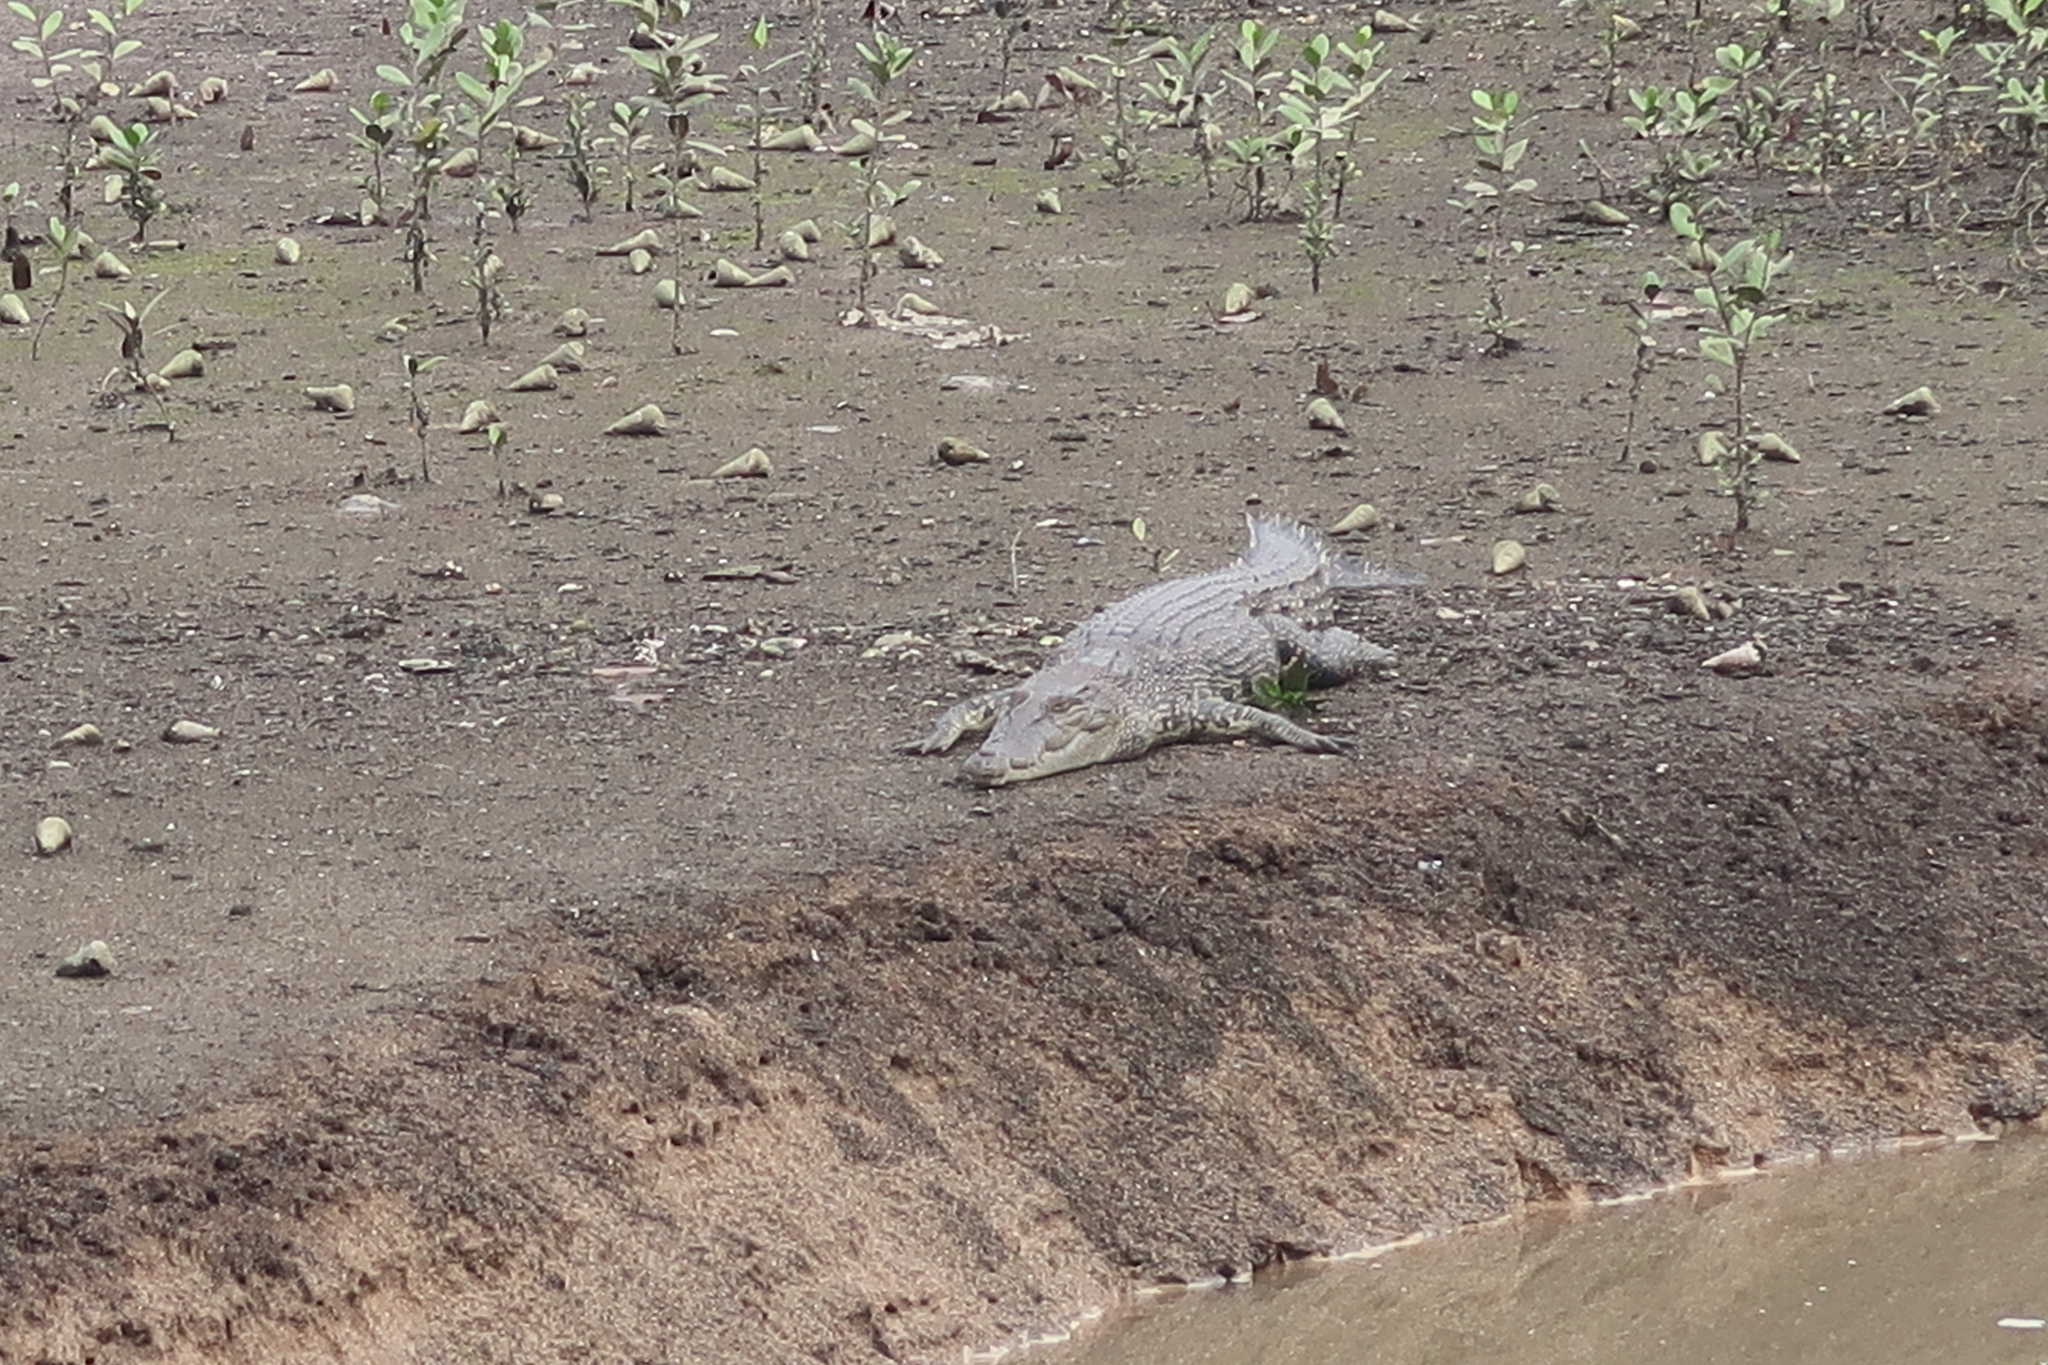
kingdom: Animalia
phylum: Chordata
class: Crocodylia
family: Crocodylidae
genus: Crocodylus
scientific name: Crocodylus porosus
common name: Saltwater crocodile
